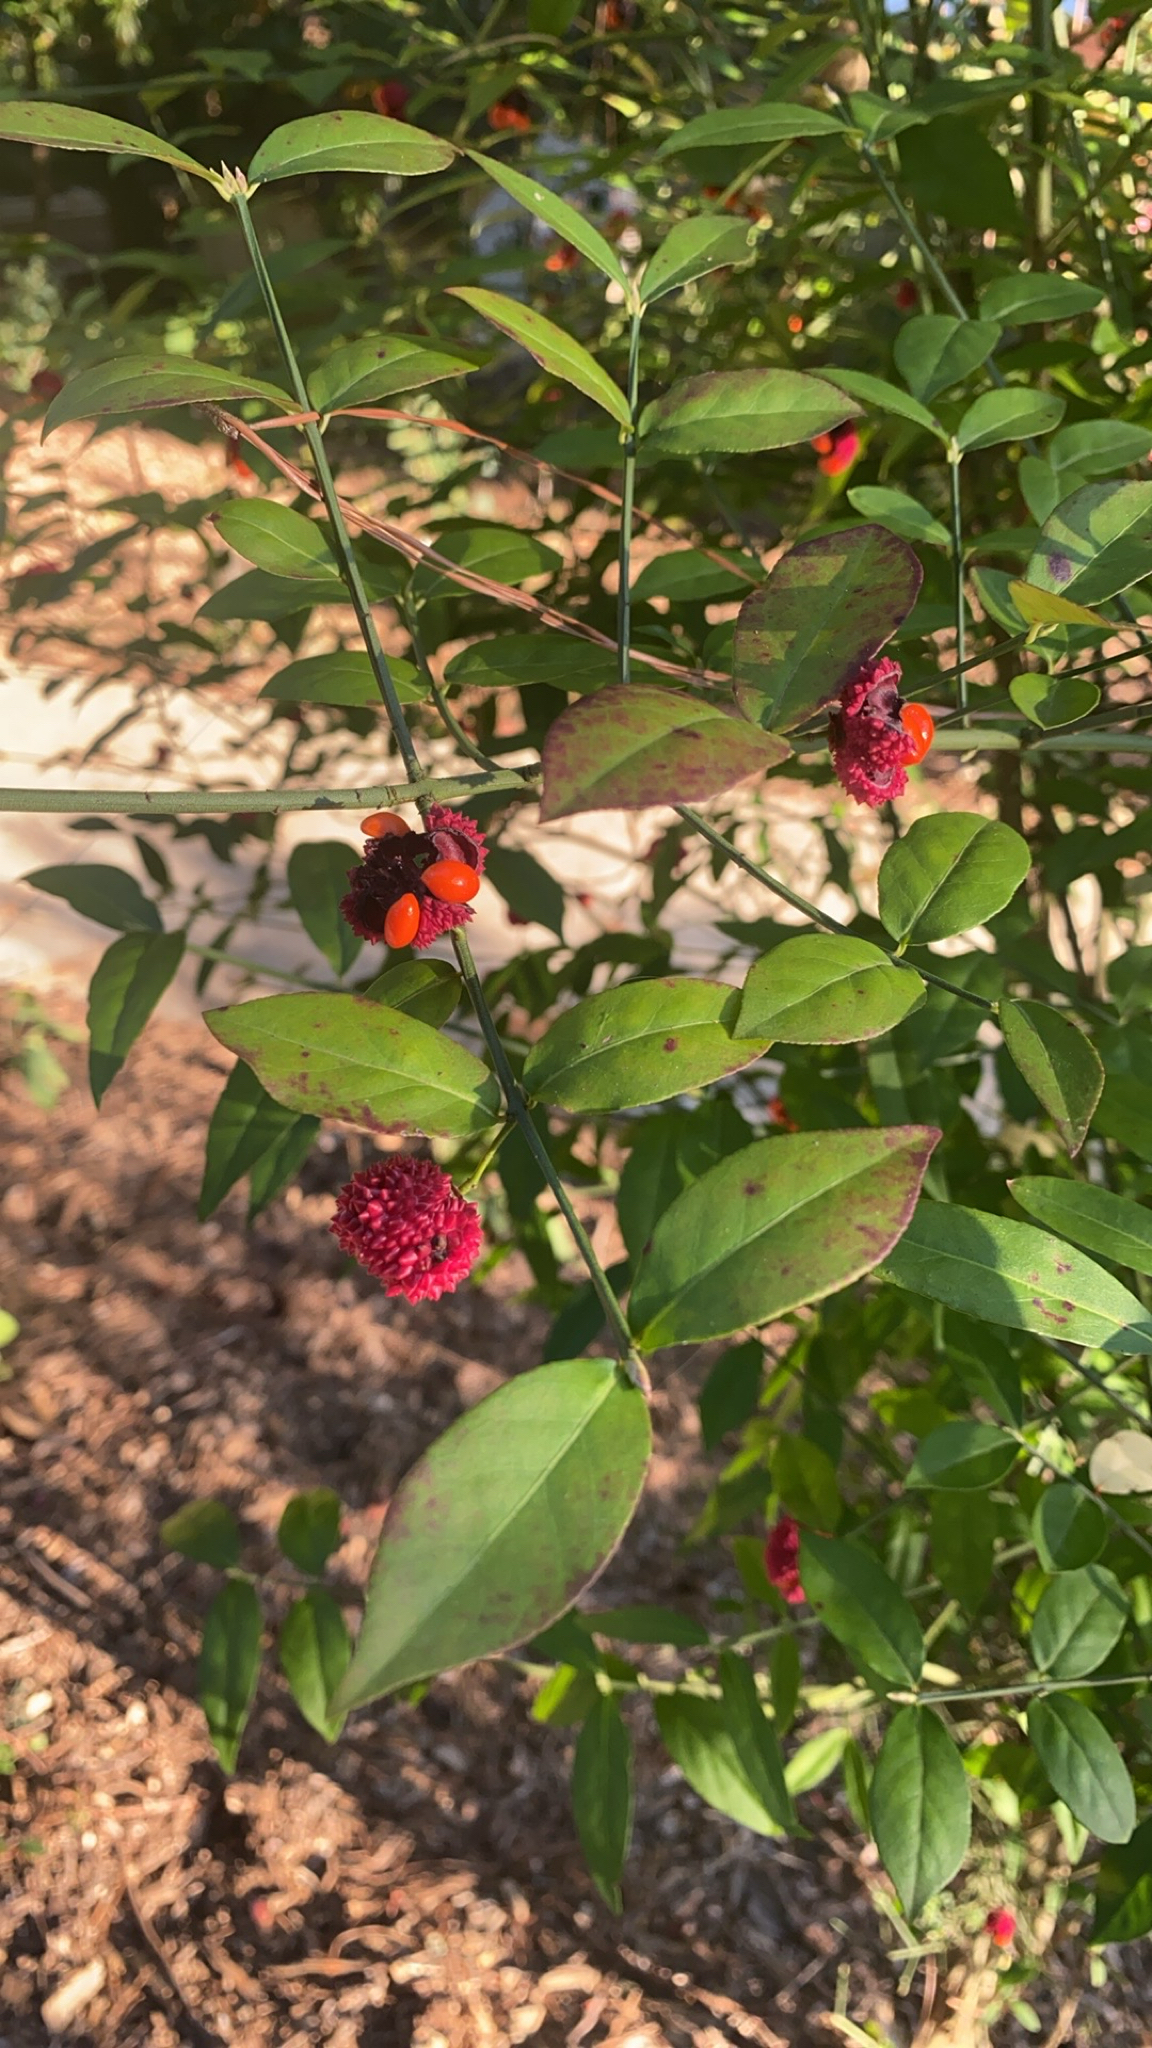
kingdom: Plantae
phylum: Tracheophyta
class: Magnoliopsida
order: Celastrales
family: Celastraceae
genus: Euonymus
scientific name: Euonymus americanus
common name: Bursting-heart
